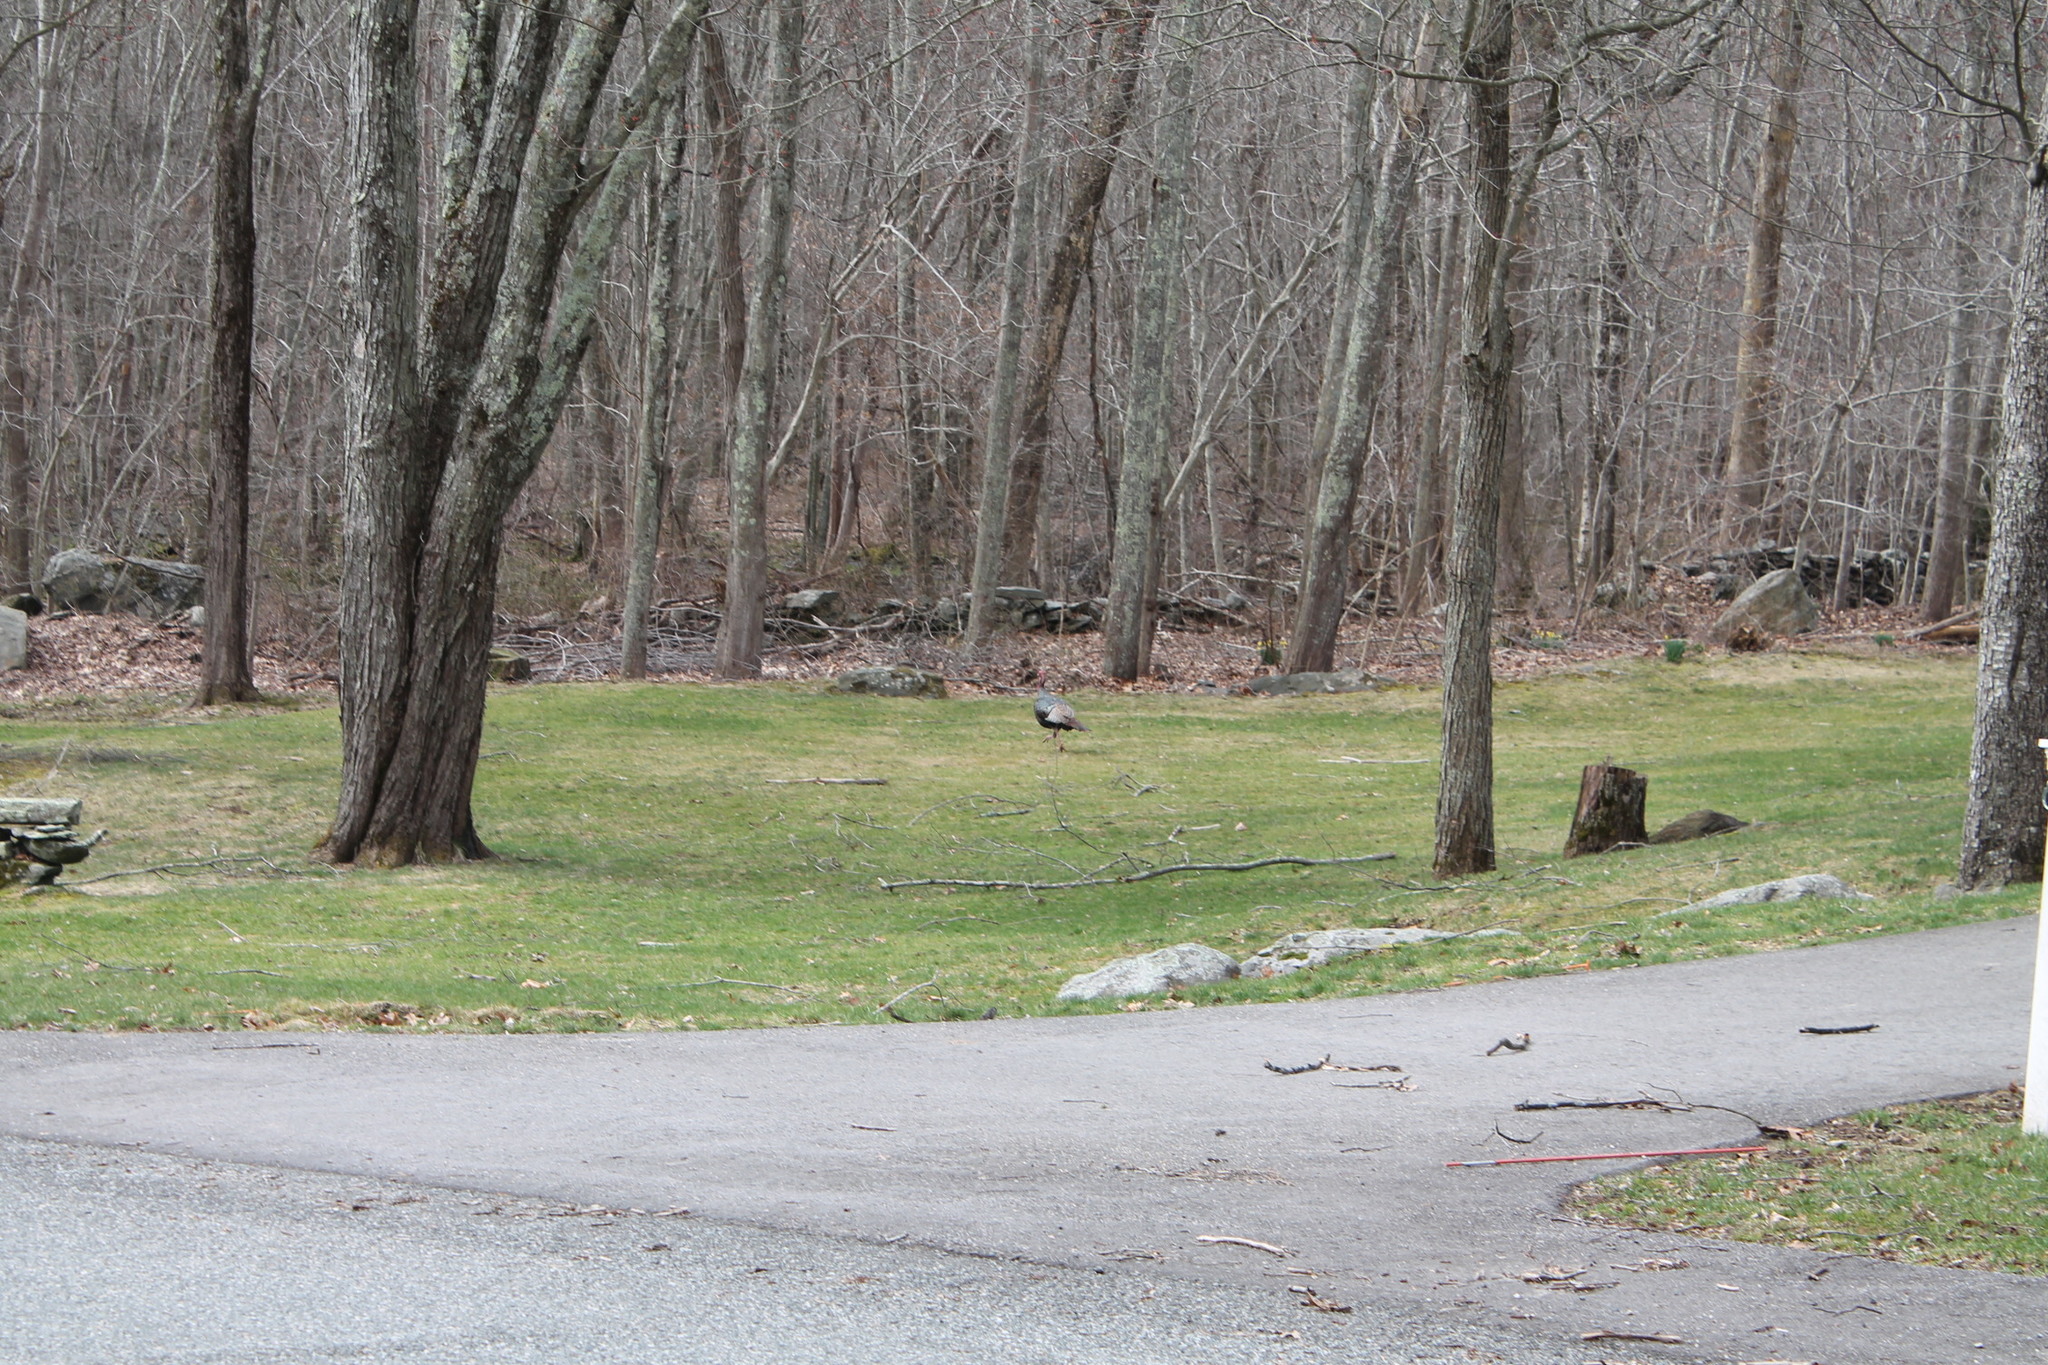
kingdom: Animalia
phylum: Chordata
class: Aves
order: Galliformes
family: Phasianidae
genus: Meleagris
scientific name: Meleagris gallopavo
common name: Wild turkey
